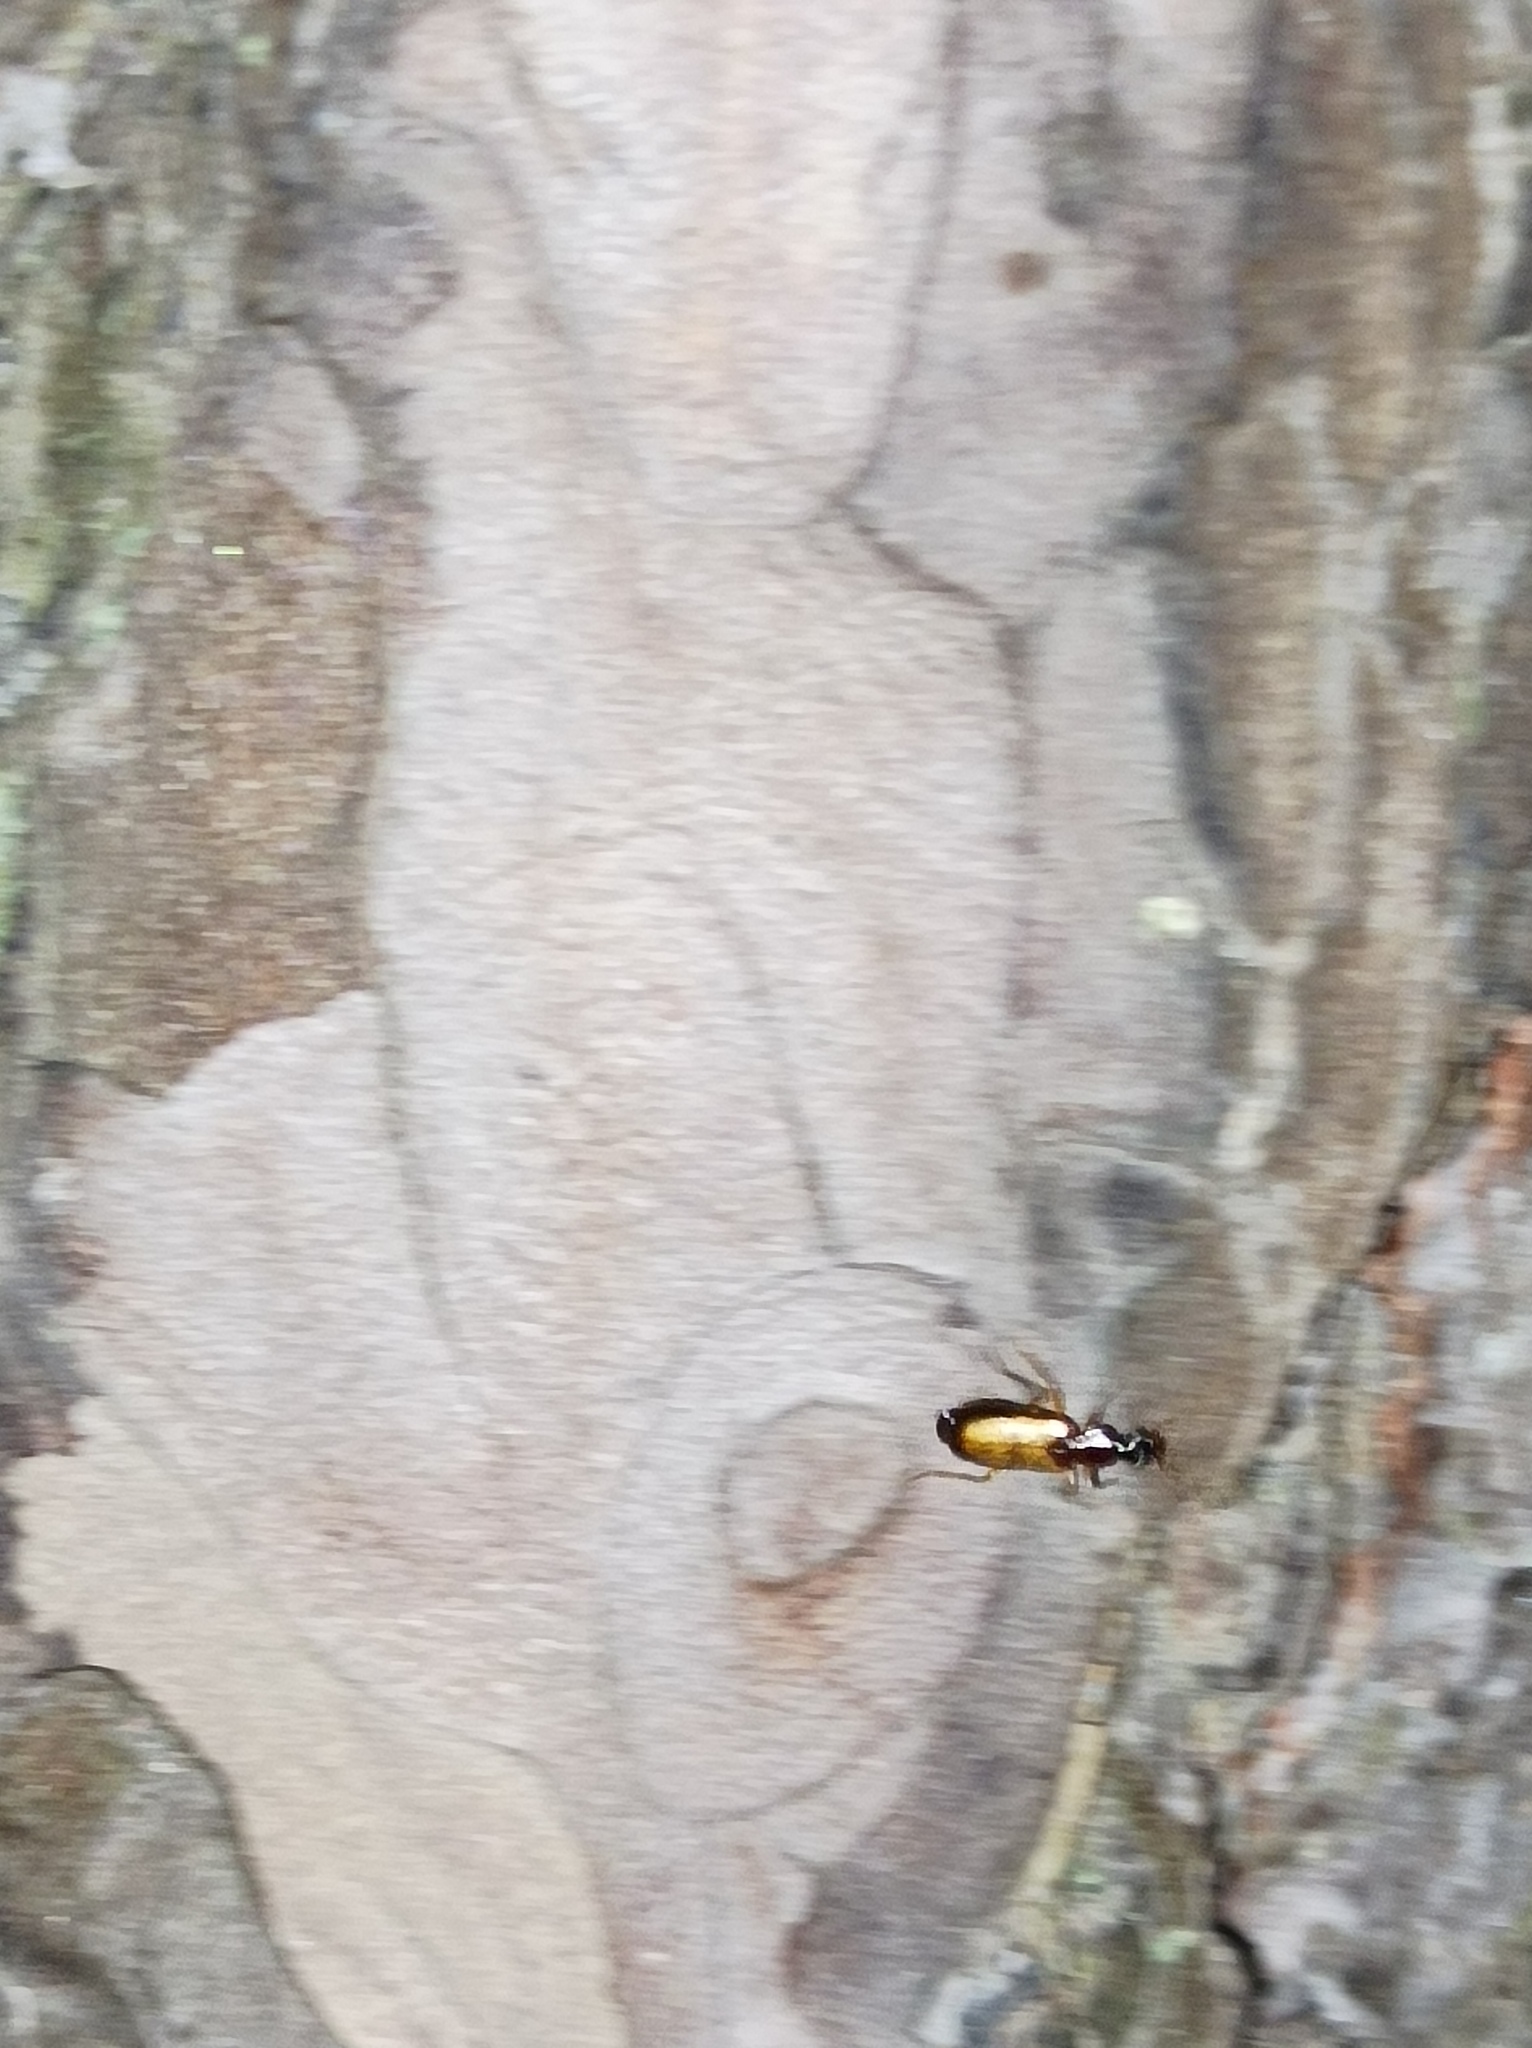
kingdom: Animalia
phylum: Arthropoda
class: Insecta
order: Coleoptera
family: Carabidae
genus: Dromius
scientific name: Dromius schneideri
